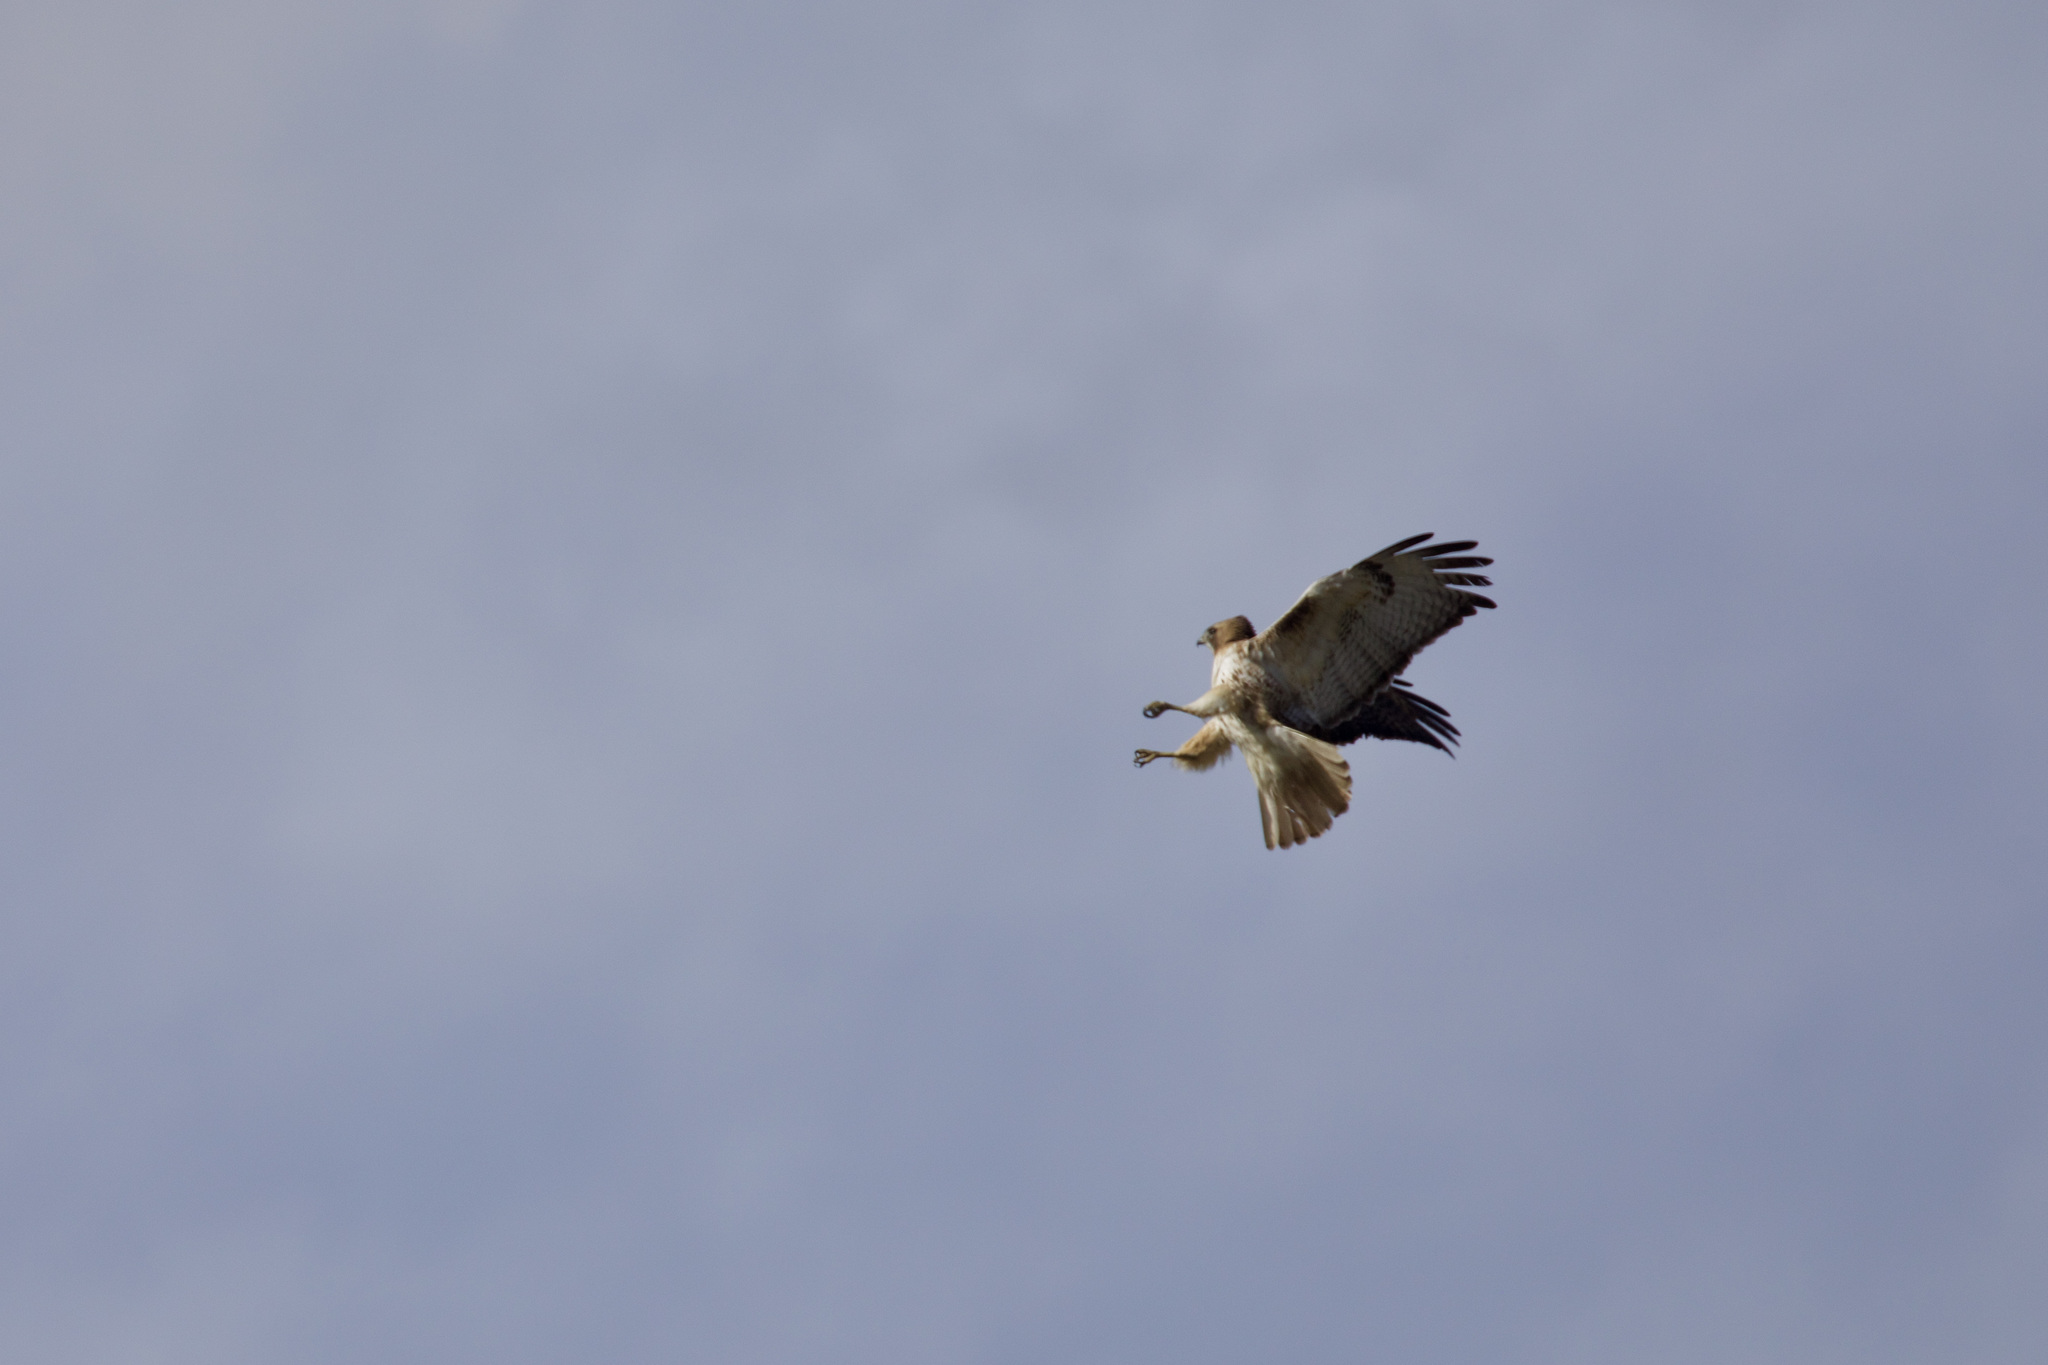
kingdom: Animalia
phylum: Chordata
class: Aves
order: Accipitriformes
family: Accipitridae
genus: Buteo
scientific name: Buteo jamaicensis
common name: Red-tailed hawk
